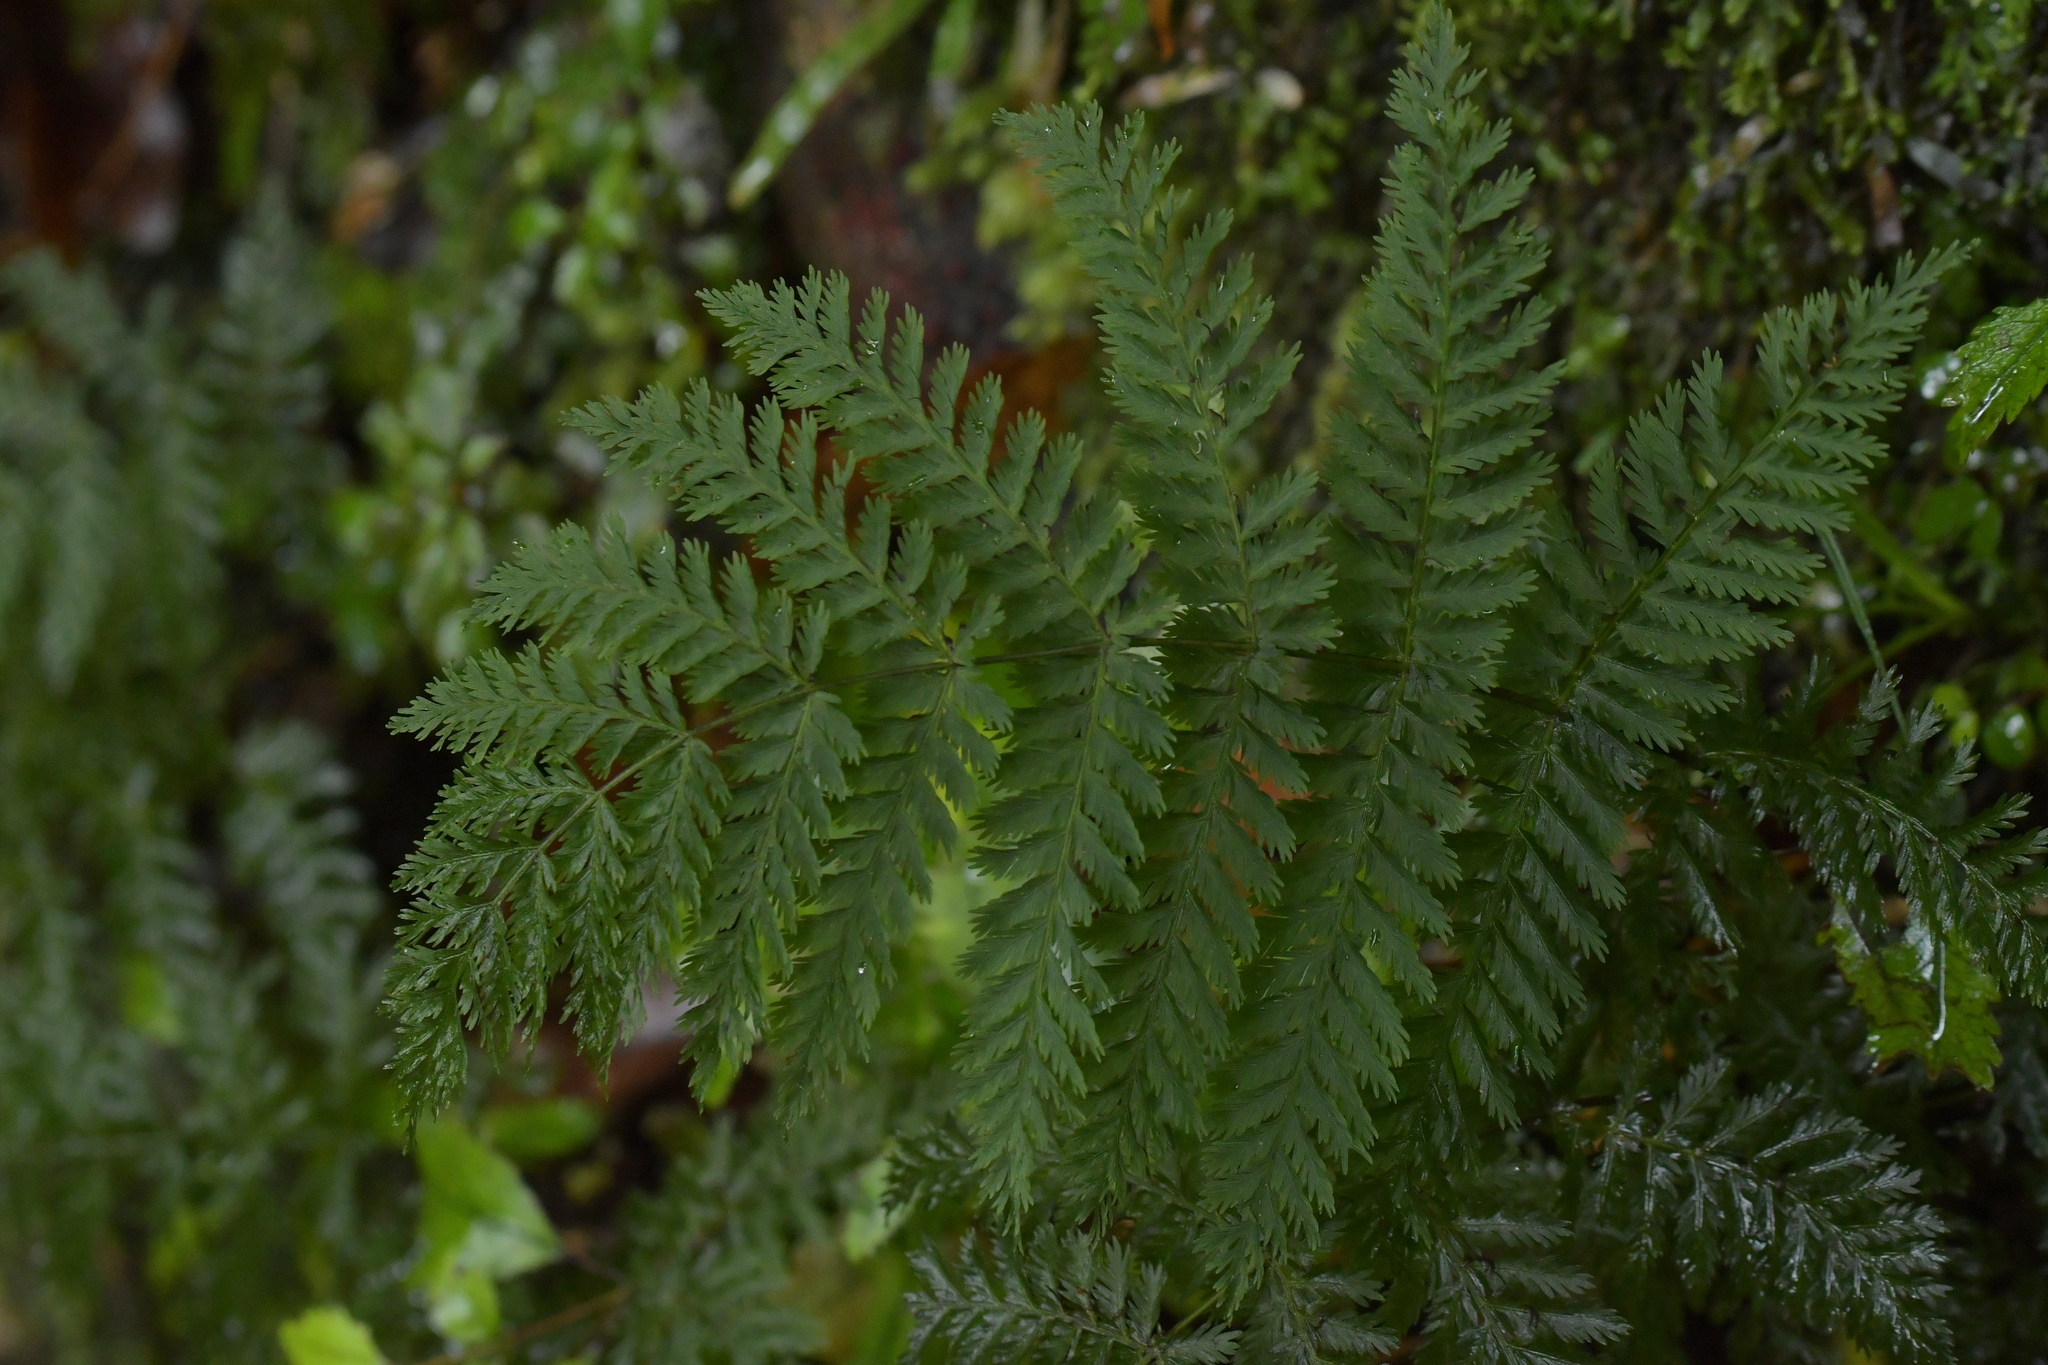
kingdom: Plantae
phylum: Tracheophyta
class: Polypodiopsida
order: Osmundales
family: Osmundaceae
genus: Leptopteris
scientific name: Leptopteris hymenophylloides
